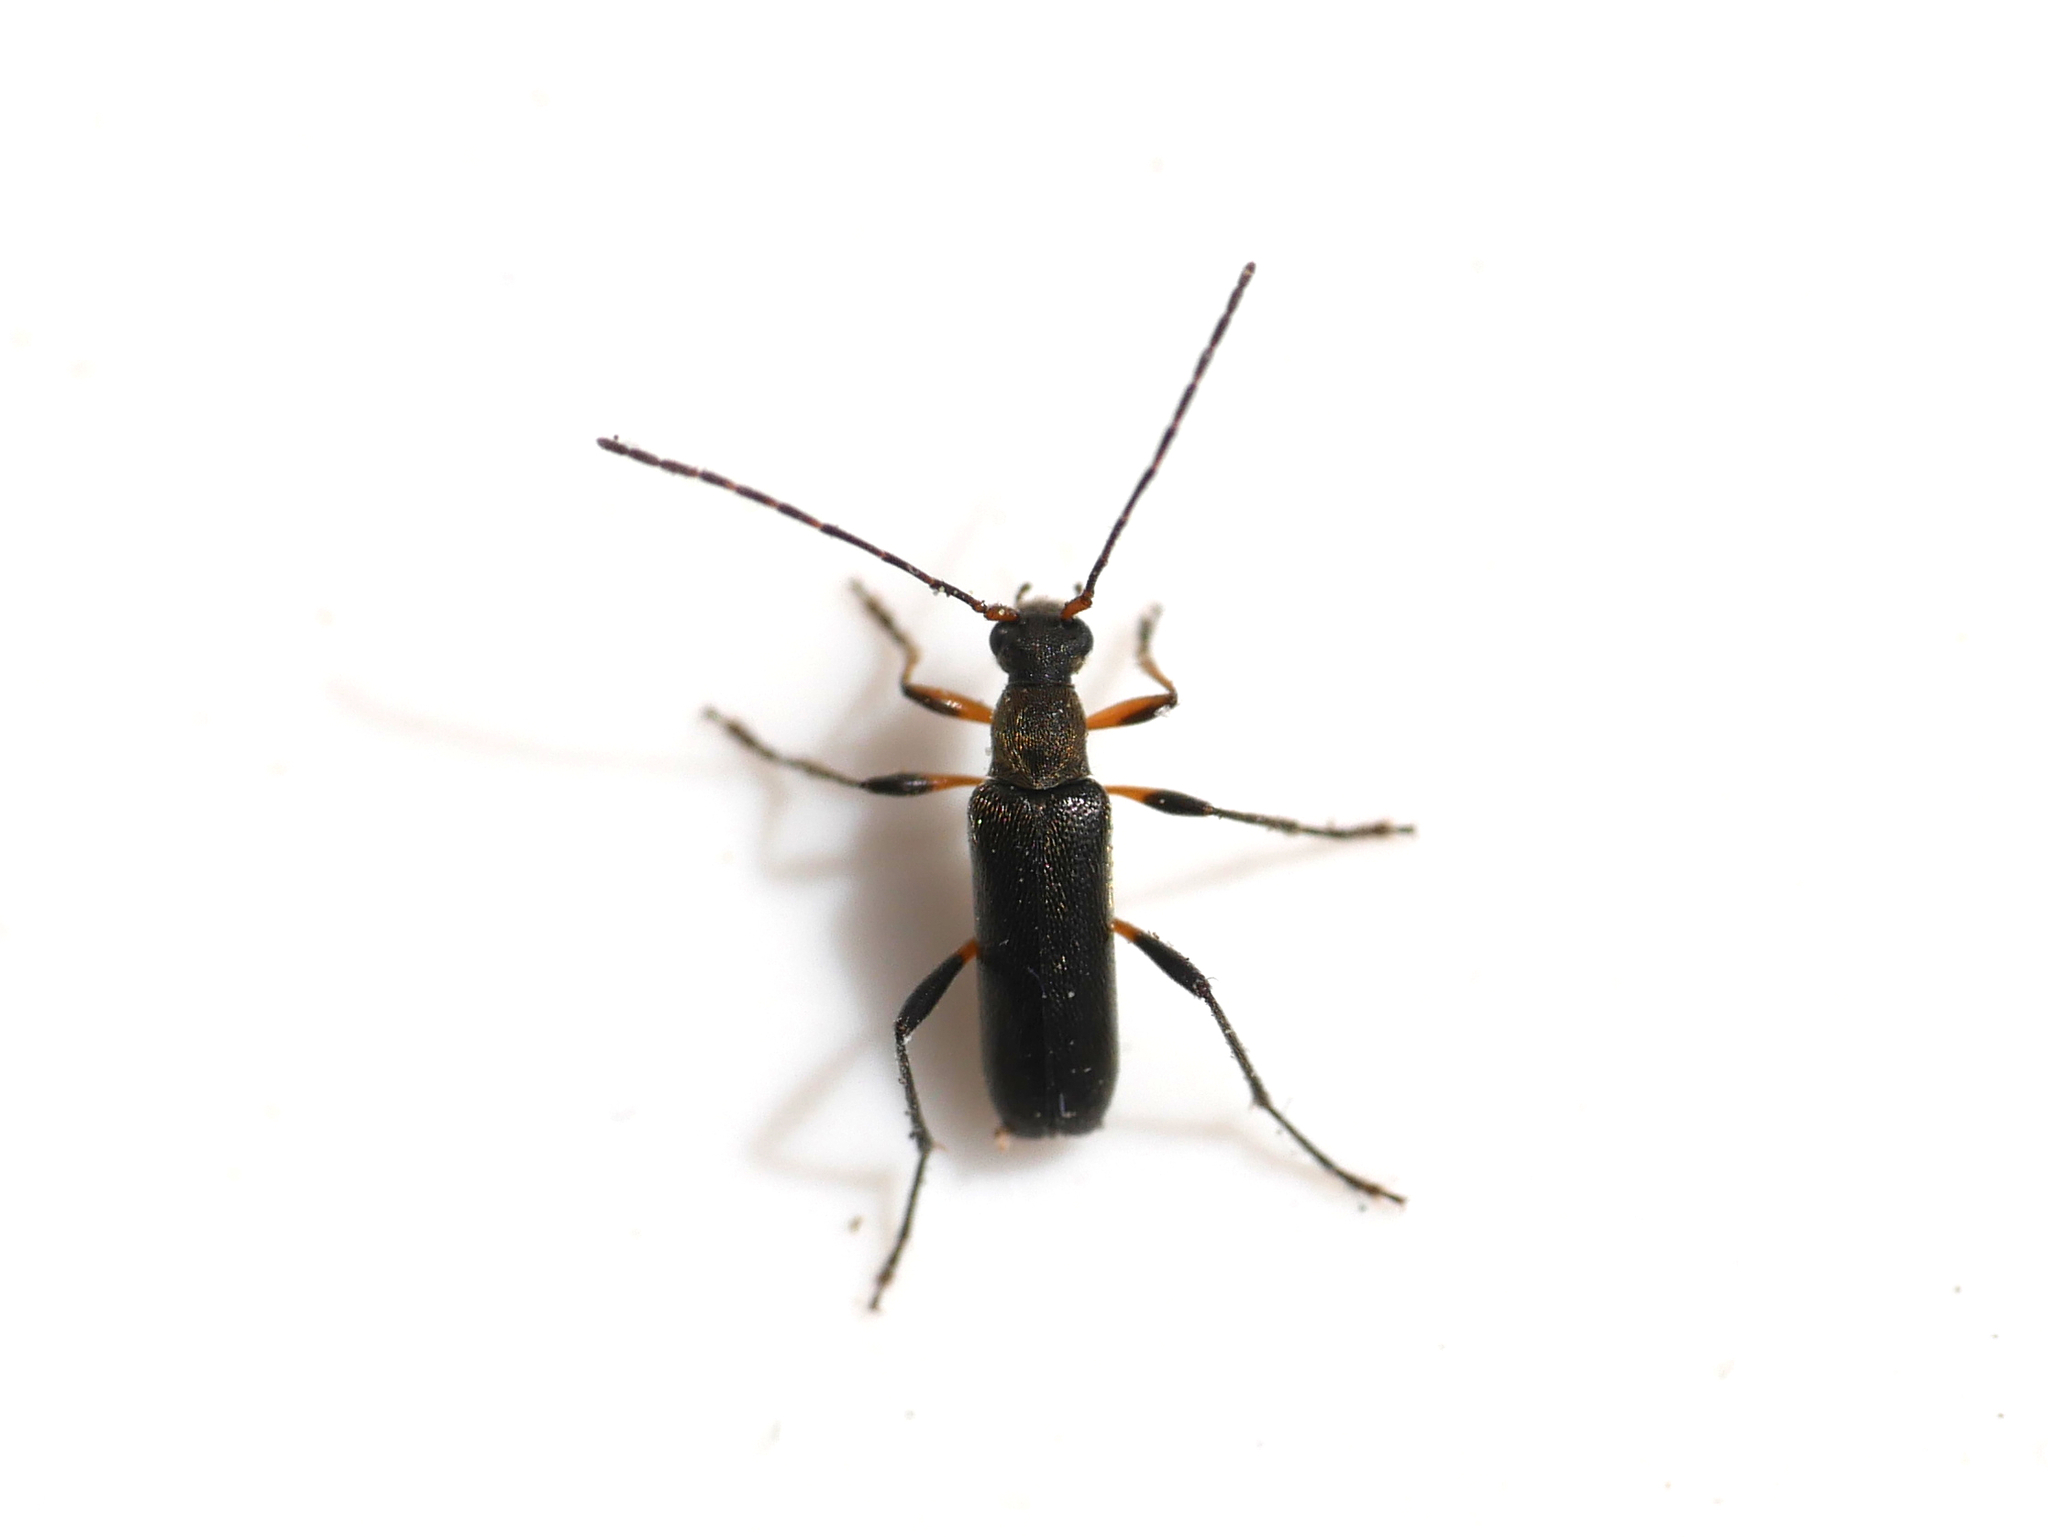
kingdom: Animalia
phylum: Arthropoda
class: Insecta
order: Coleoptera
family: Cerambycidae
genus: Grammoptera
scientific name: Grammoptera ruficornis
